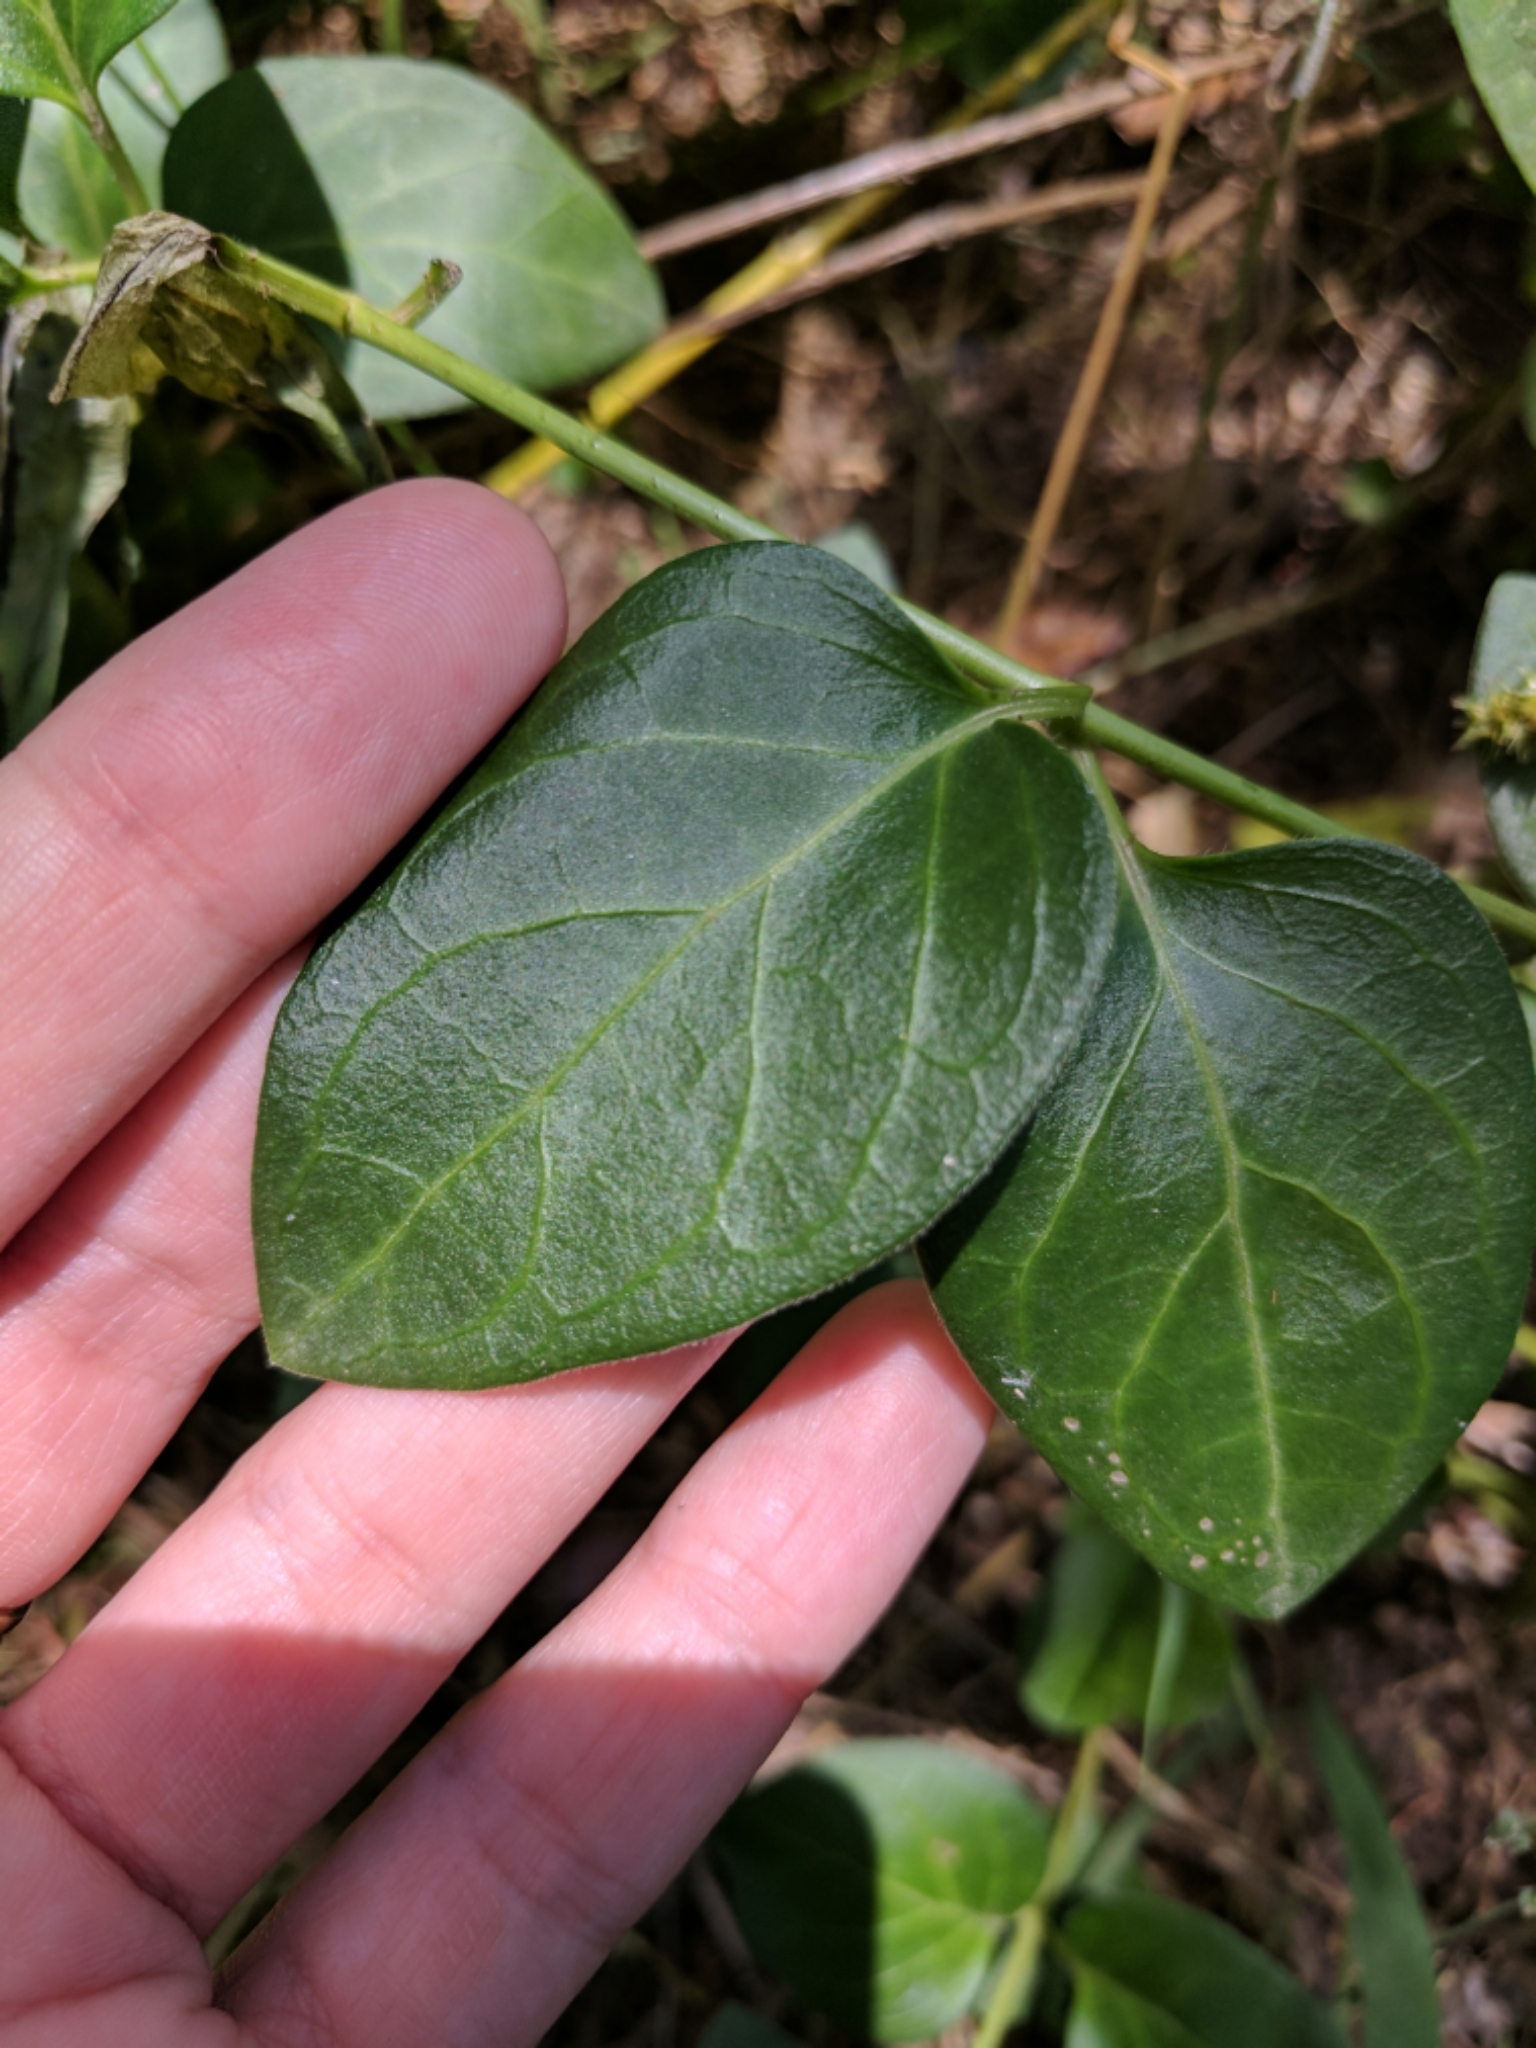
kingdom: Plantae
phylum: Tracheophyta
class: Magnoliopsida
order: Gentianales
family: Apocynaceae
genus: Vinca
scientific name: Vinca major
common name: Greater periwinkle
